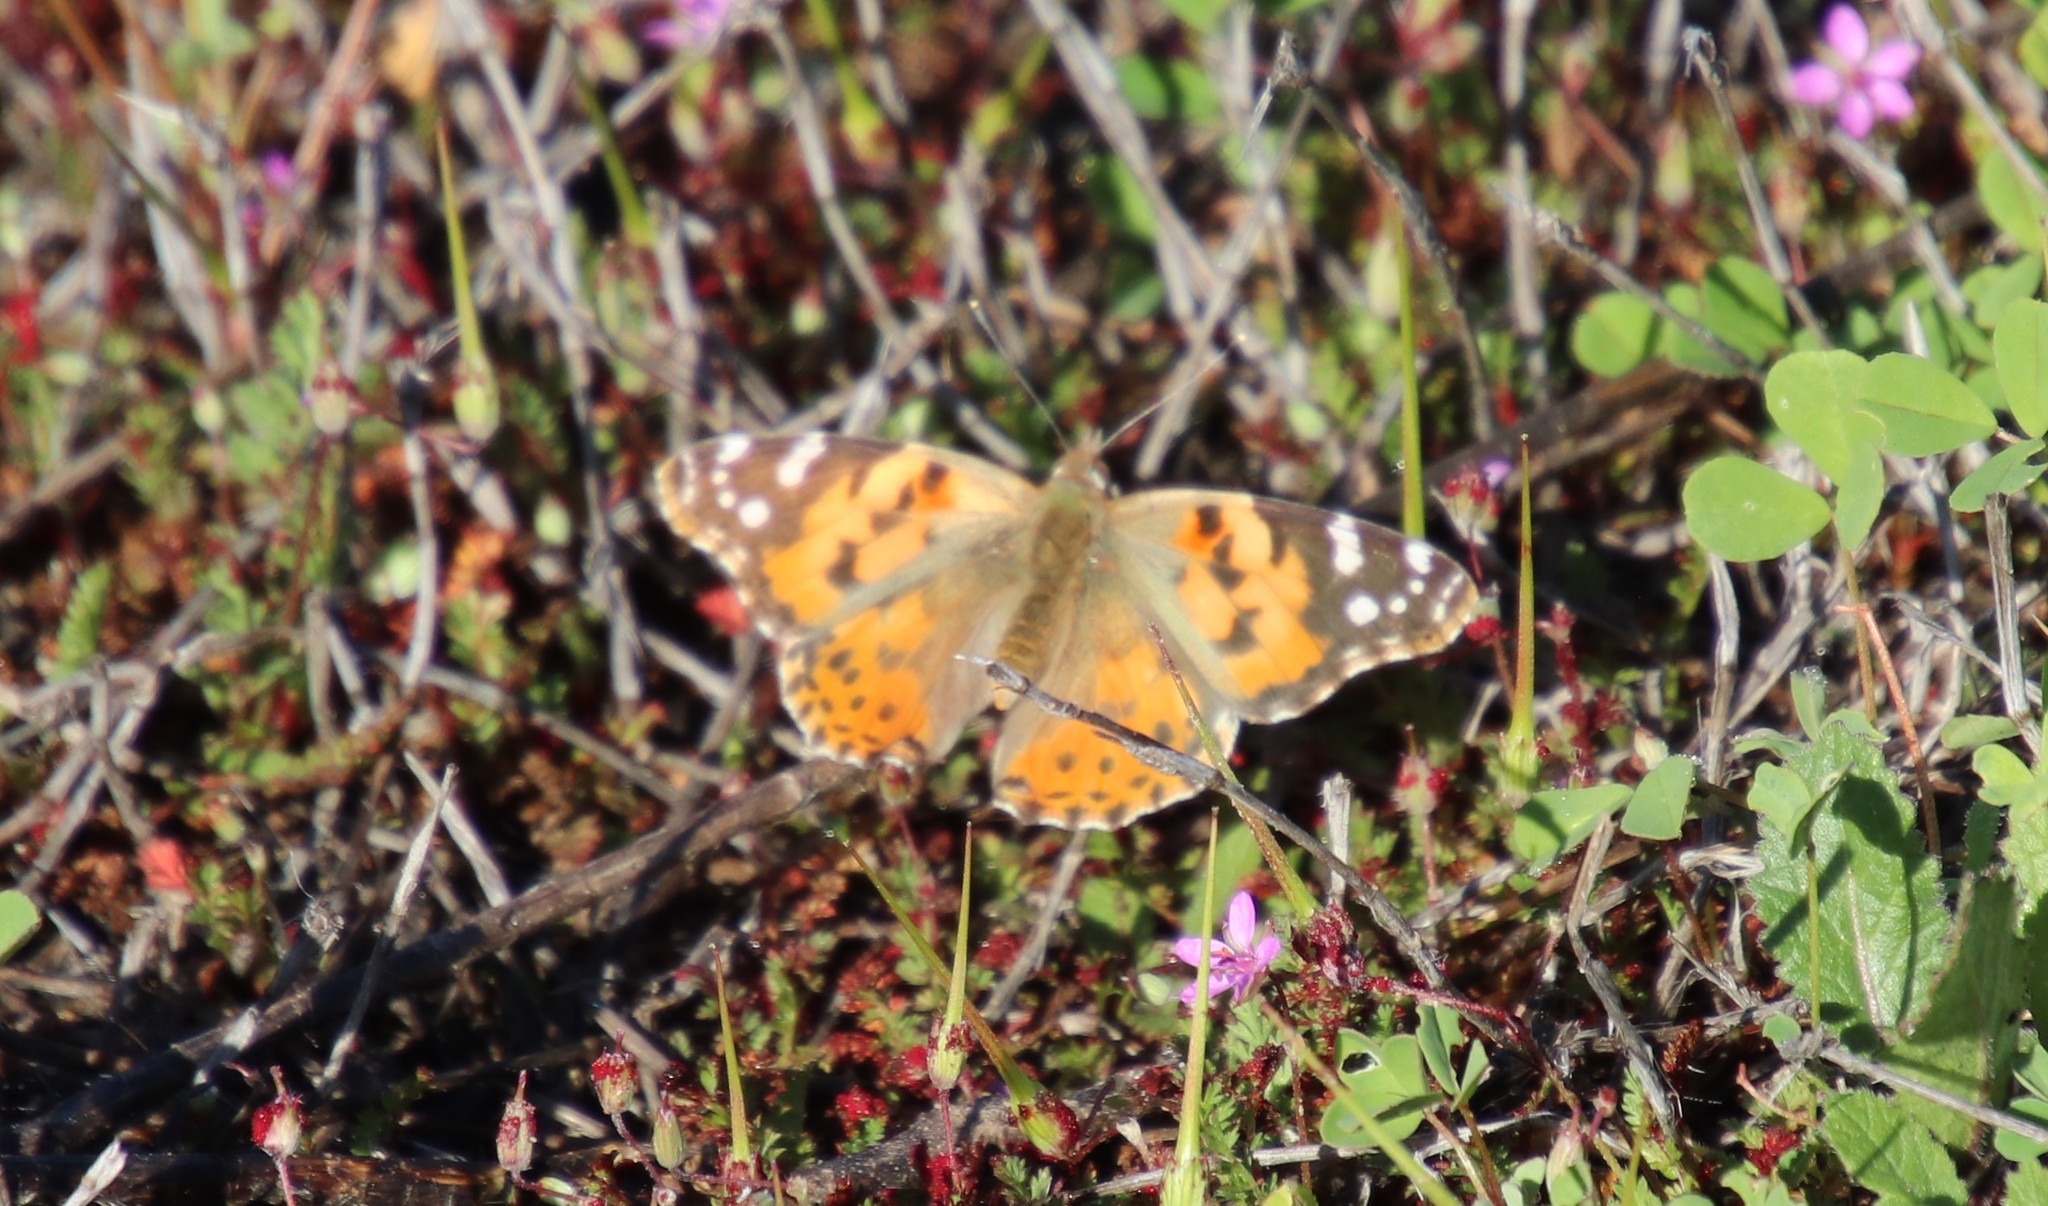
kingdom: Animalia
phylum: Arthropoda
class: Insecta
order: Lepidoptera
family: Nymphalidae
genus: Vanessa
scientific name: Vanessa cardui
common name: Painted lady
